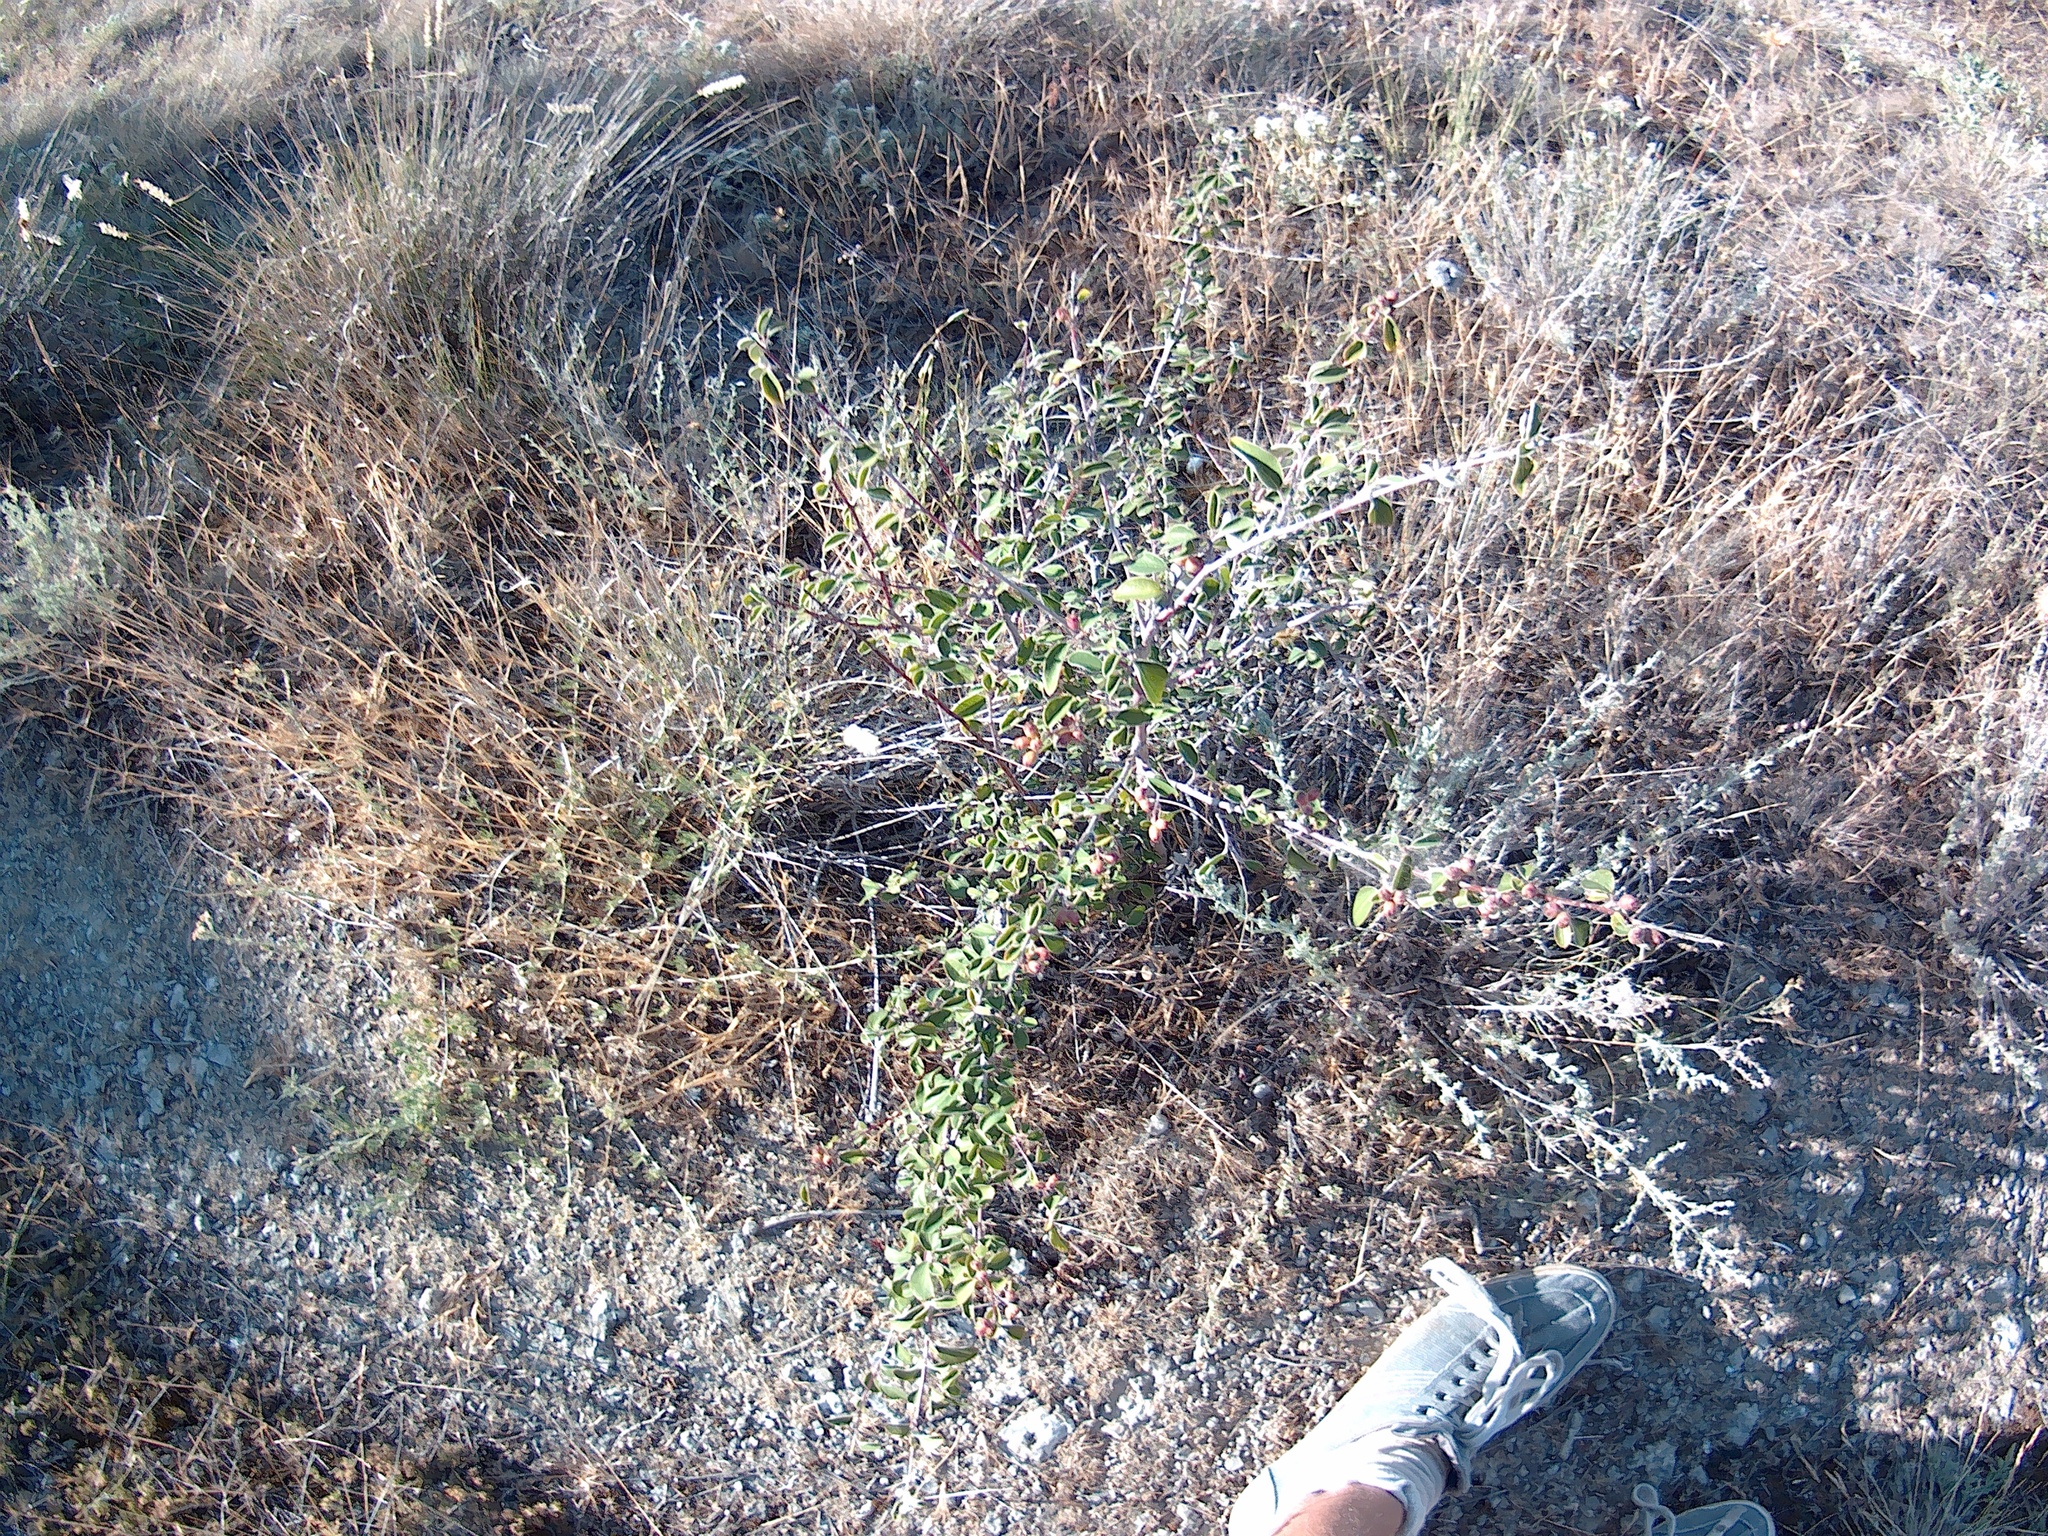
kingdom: Plantae
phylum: Tracheophyta
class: Magnoliopsida
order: Rosales
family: Rosaceae
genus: Cotoneaster
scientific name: Cotoneaster tauricus
